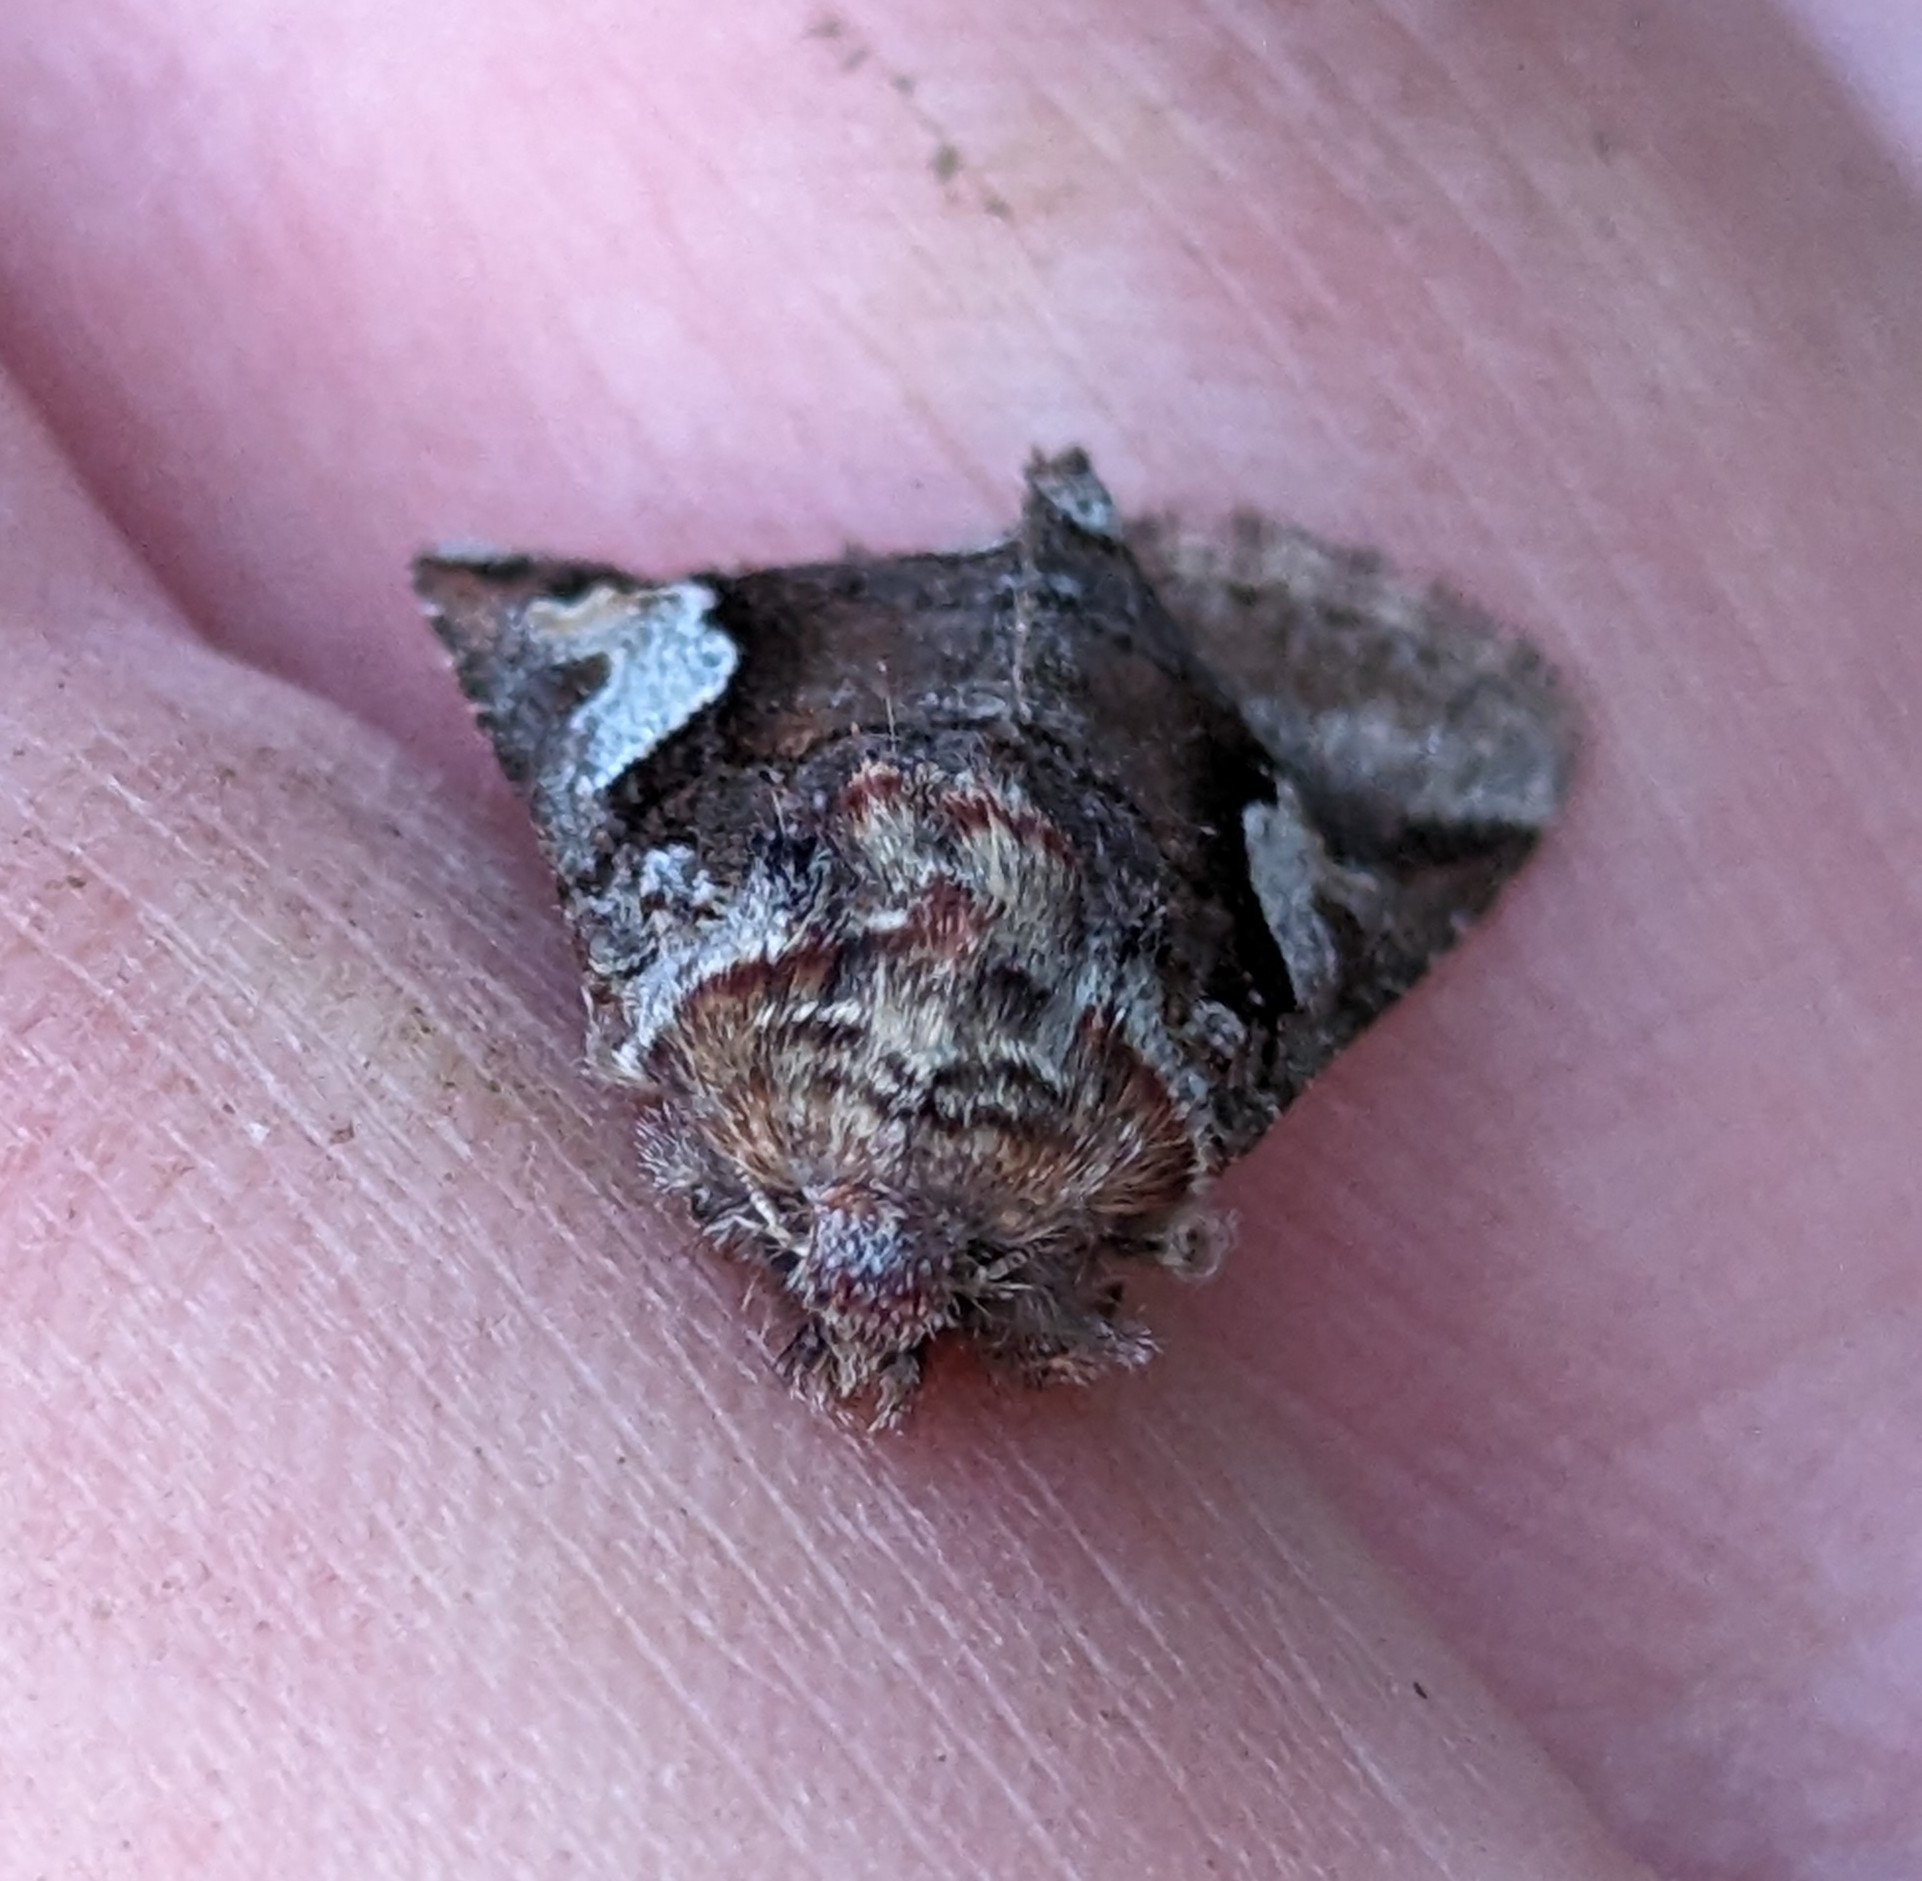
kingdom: Animalia
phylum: Arthropoda
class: Insecta
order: Lepidoptera
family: Noctuidae
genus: Stretchia
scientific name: Stretchia muricina
